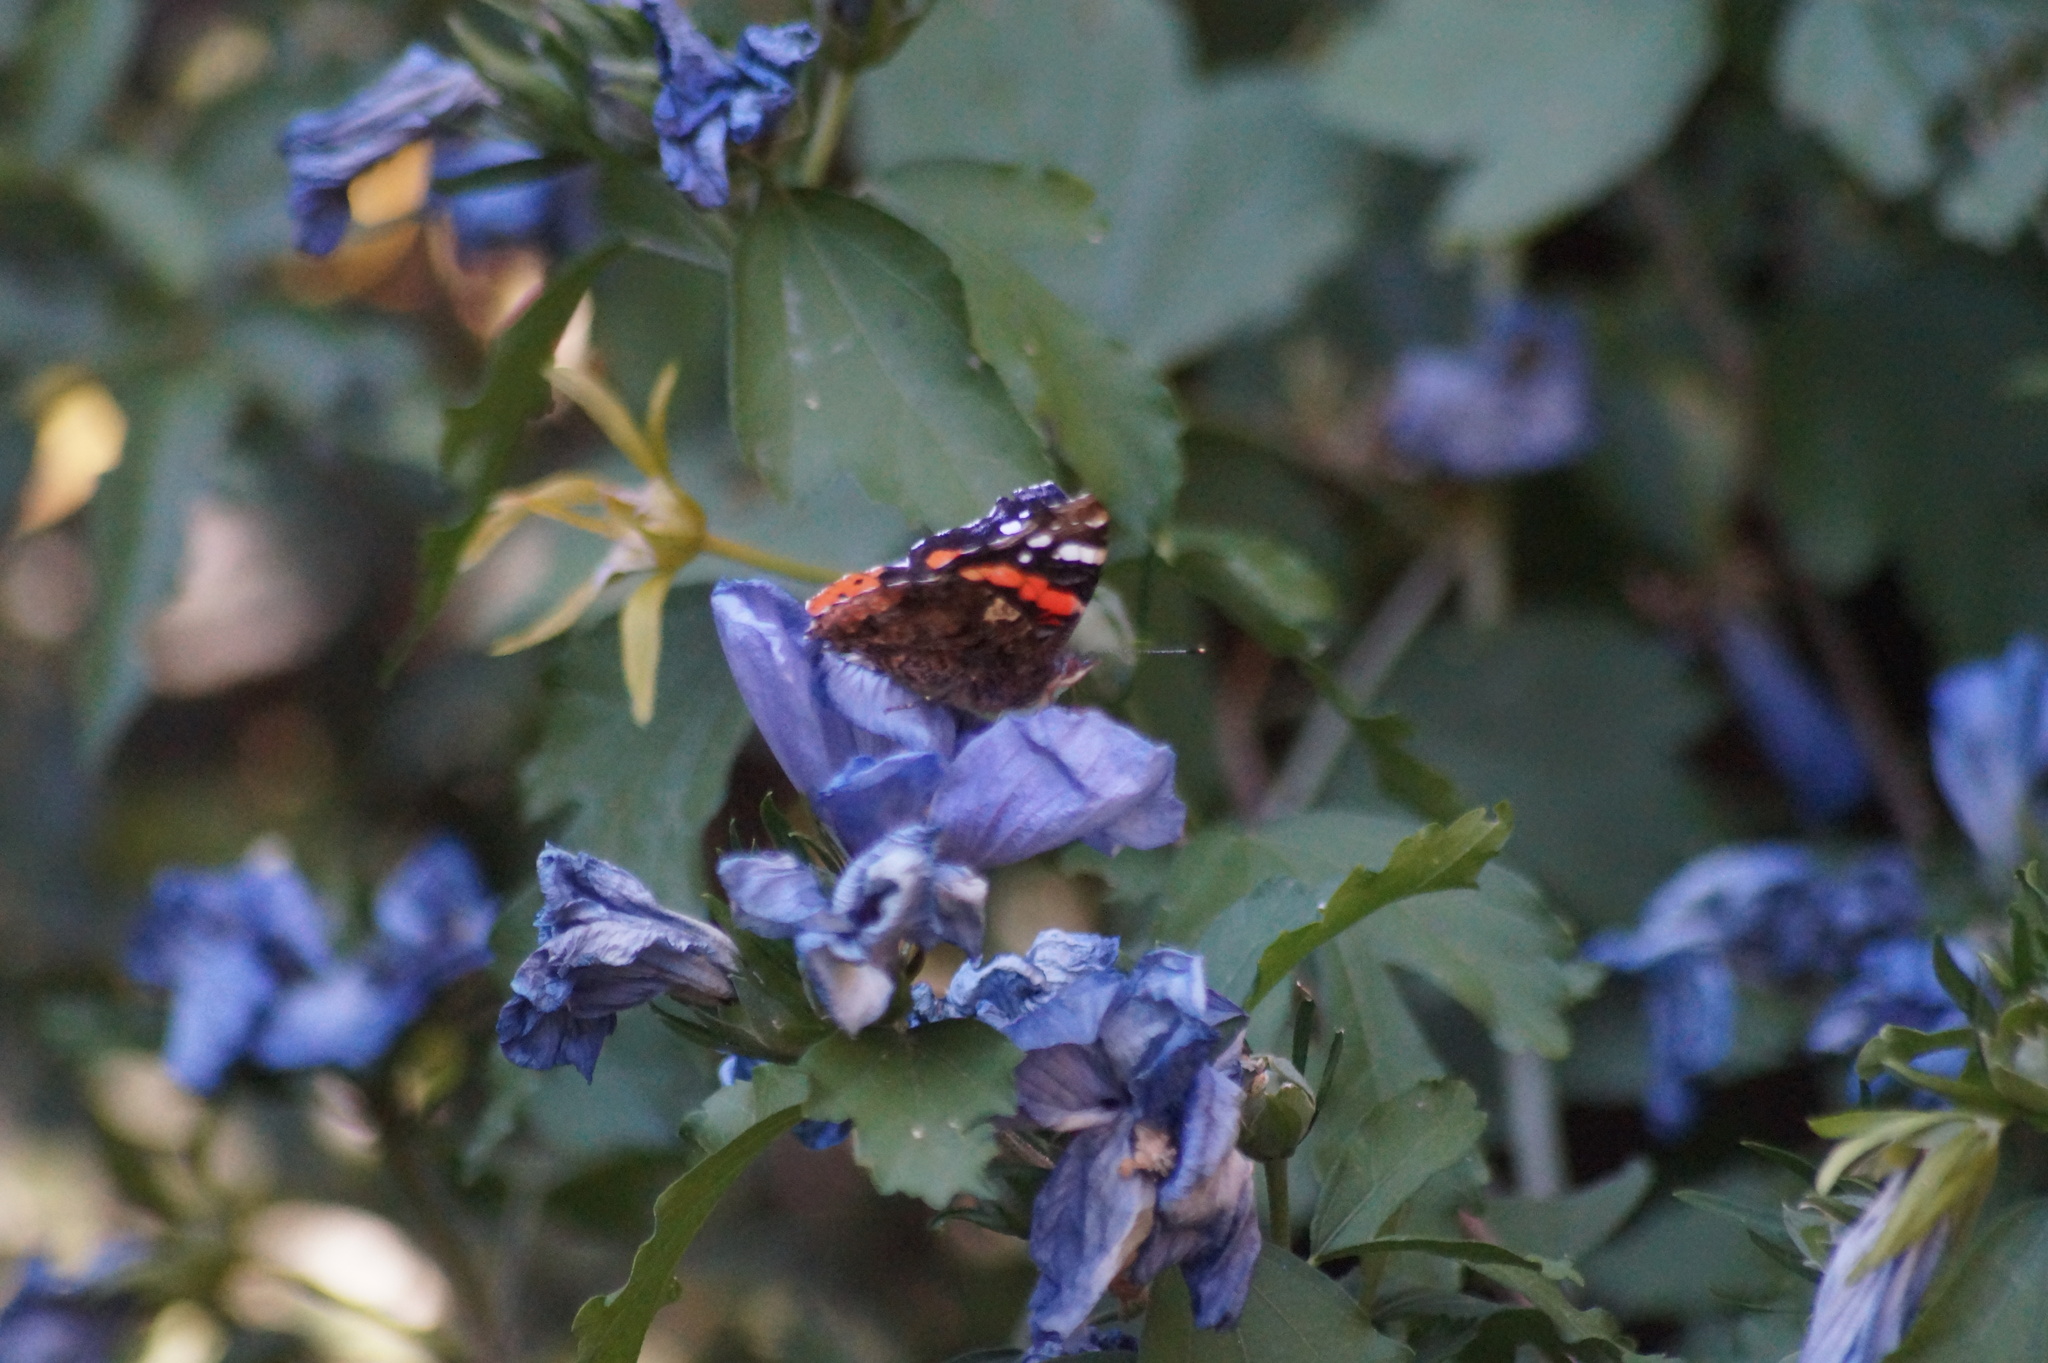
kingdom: Animalia
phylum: Arthropoda
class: Insecta
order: Lepidoptera
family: Nymphalidae
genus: Vanessa
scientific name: Vanessa atalanta
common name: Red admiral
